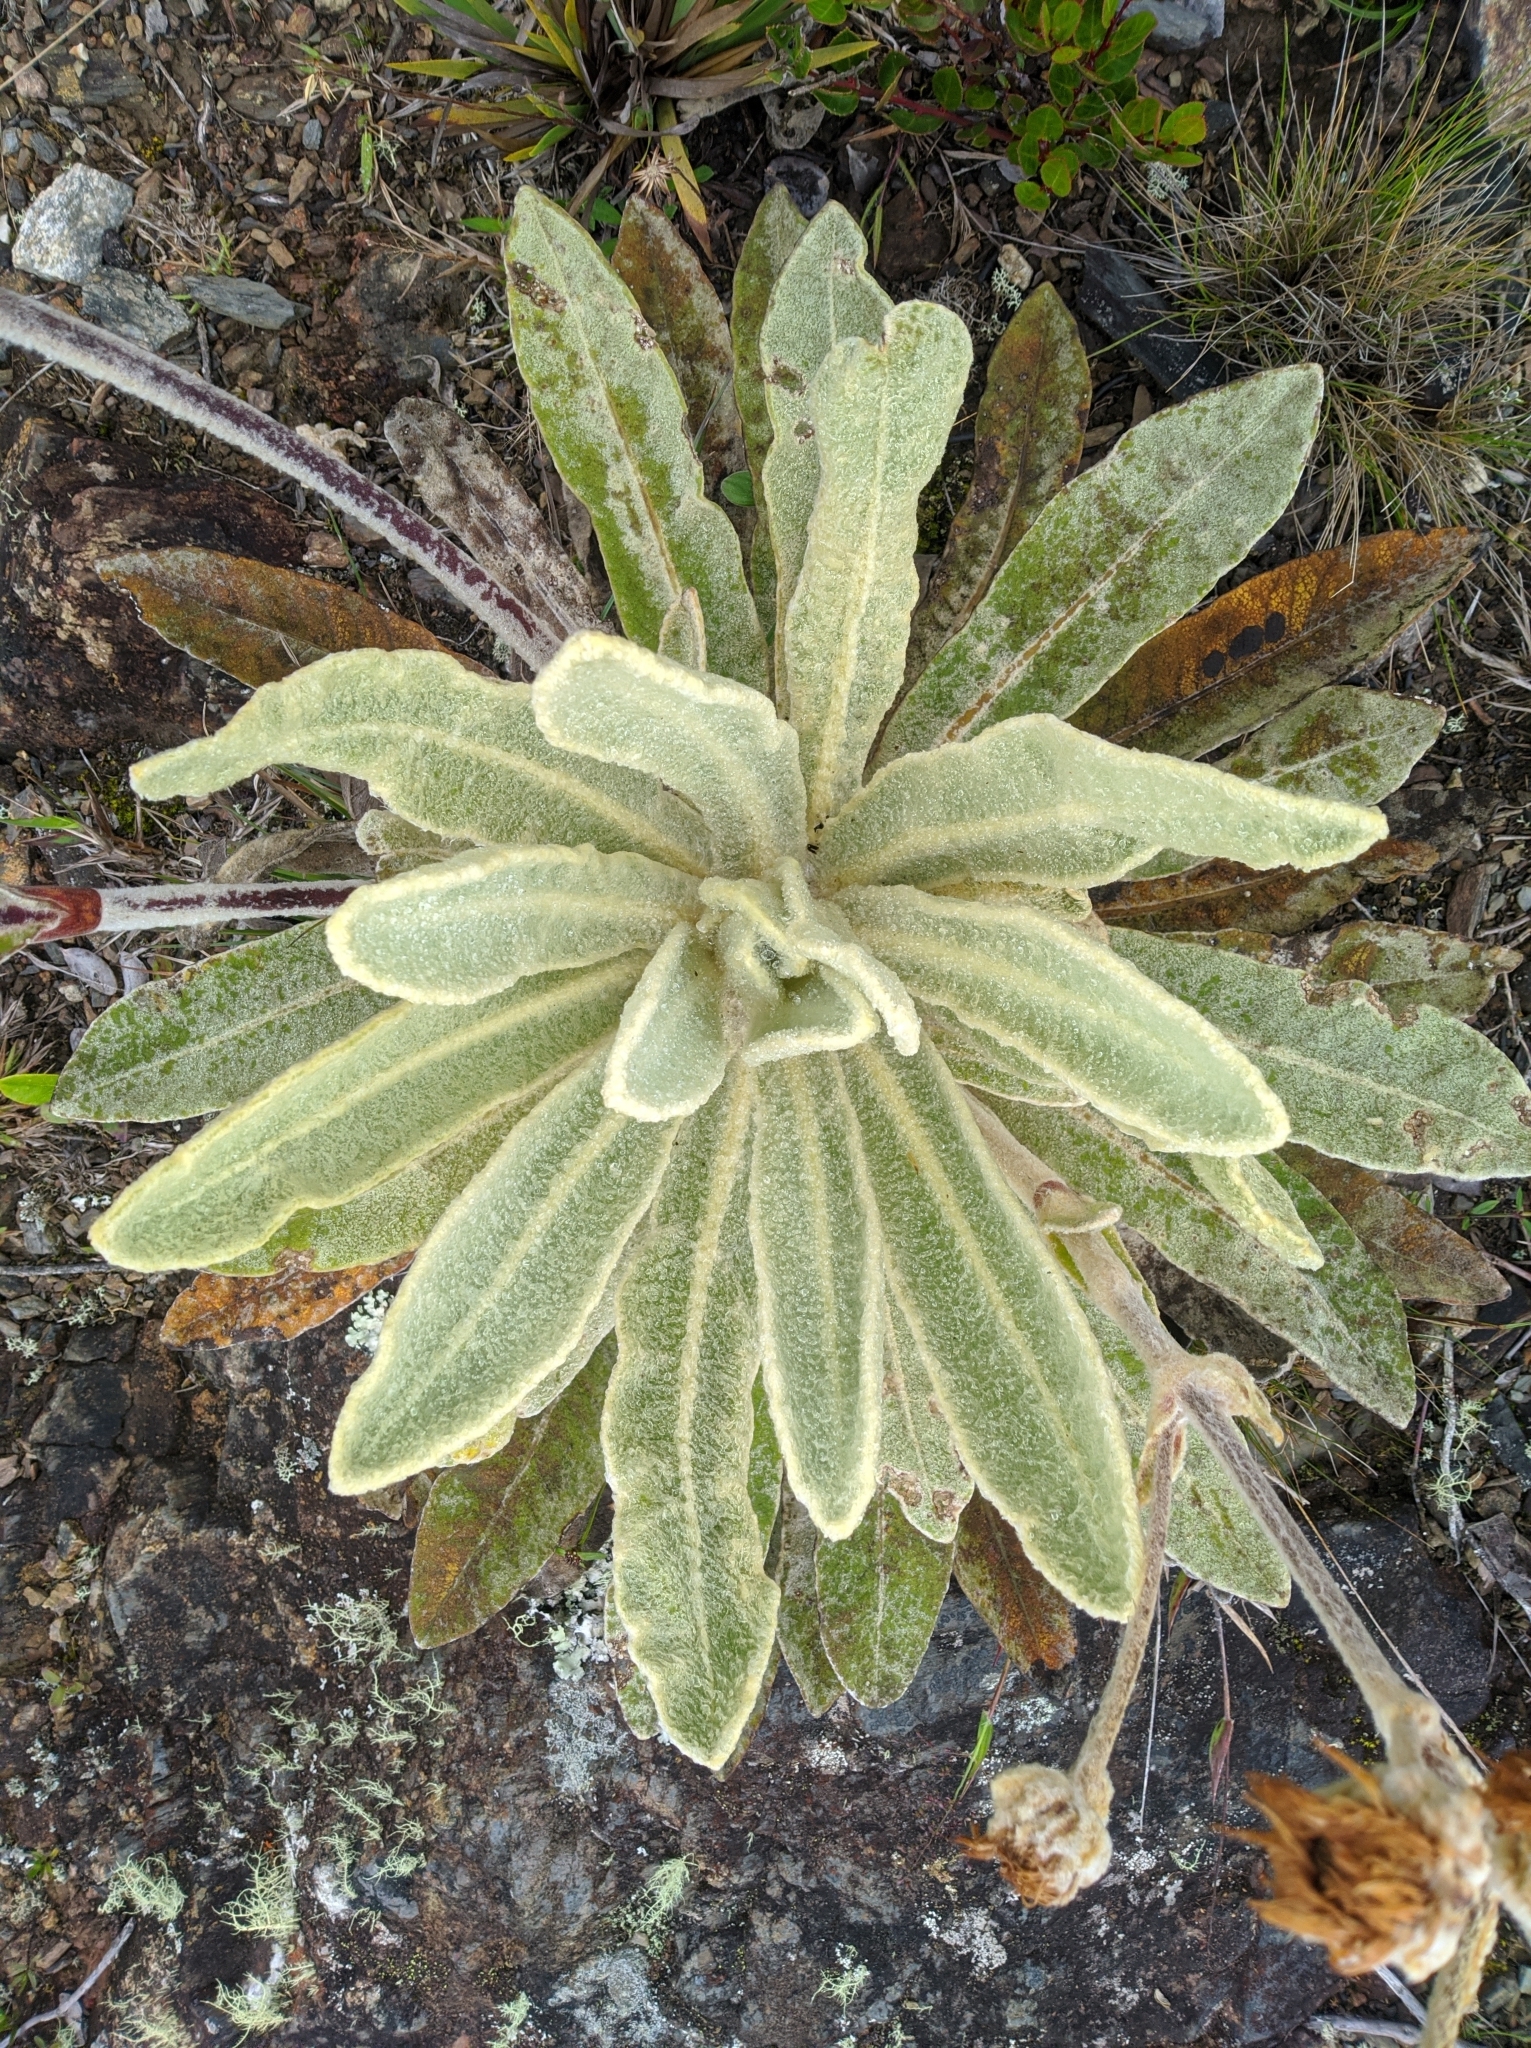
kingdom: Plantae
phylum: Tracheophyta
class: Magnoliopsida
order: Asterales
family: Asteraceae
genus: Espeletia
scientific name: Espeletia aristeguietana
